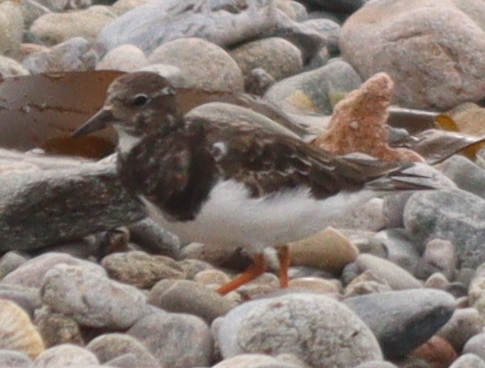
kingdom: Animalia
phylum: Chordata
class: Aves
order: Charadriiformes
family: Scolopacidae
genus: Arenaria
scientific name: Arenaria interpres
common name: Ruddy turnstone
